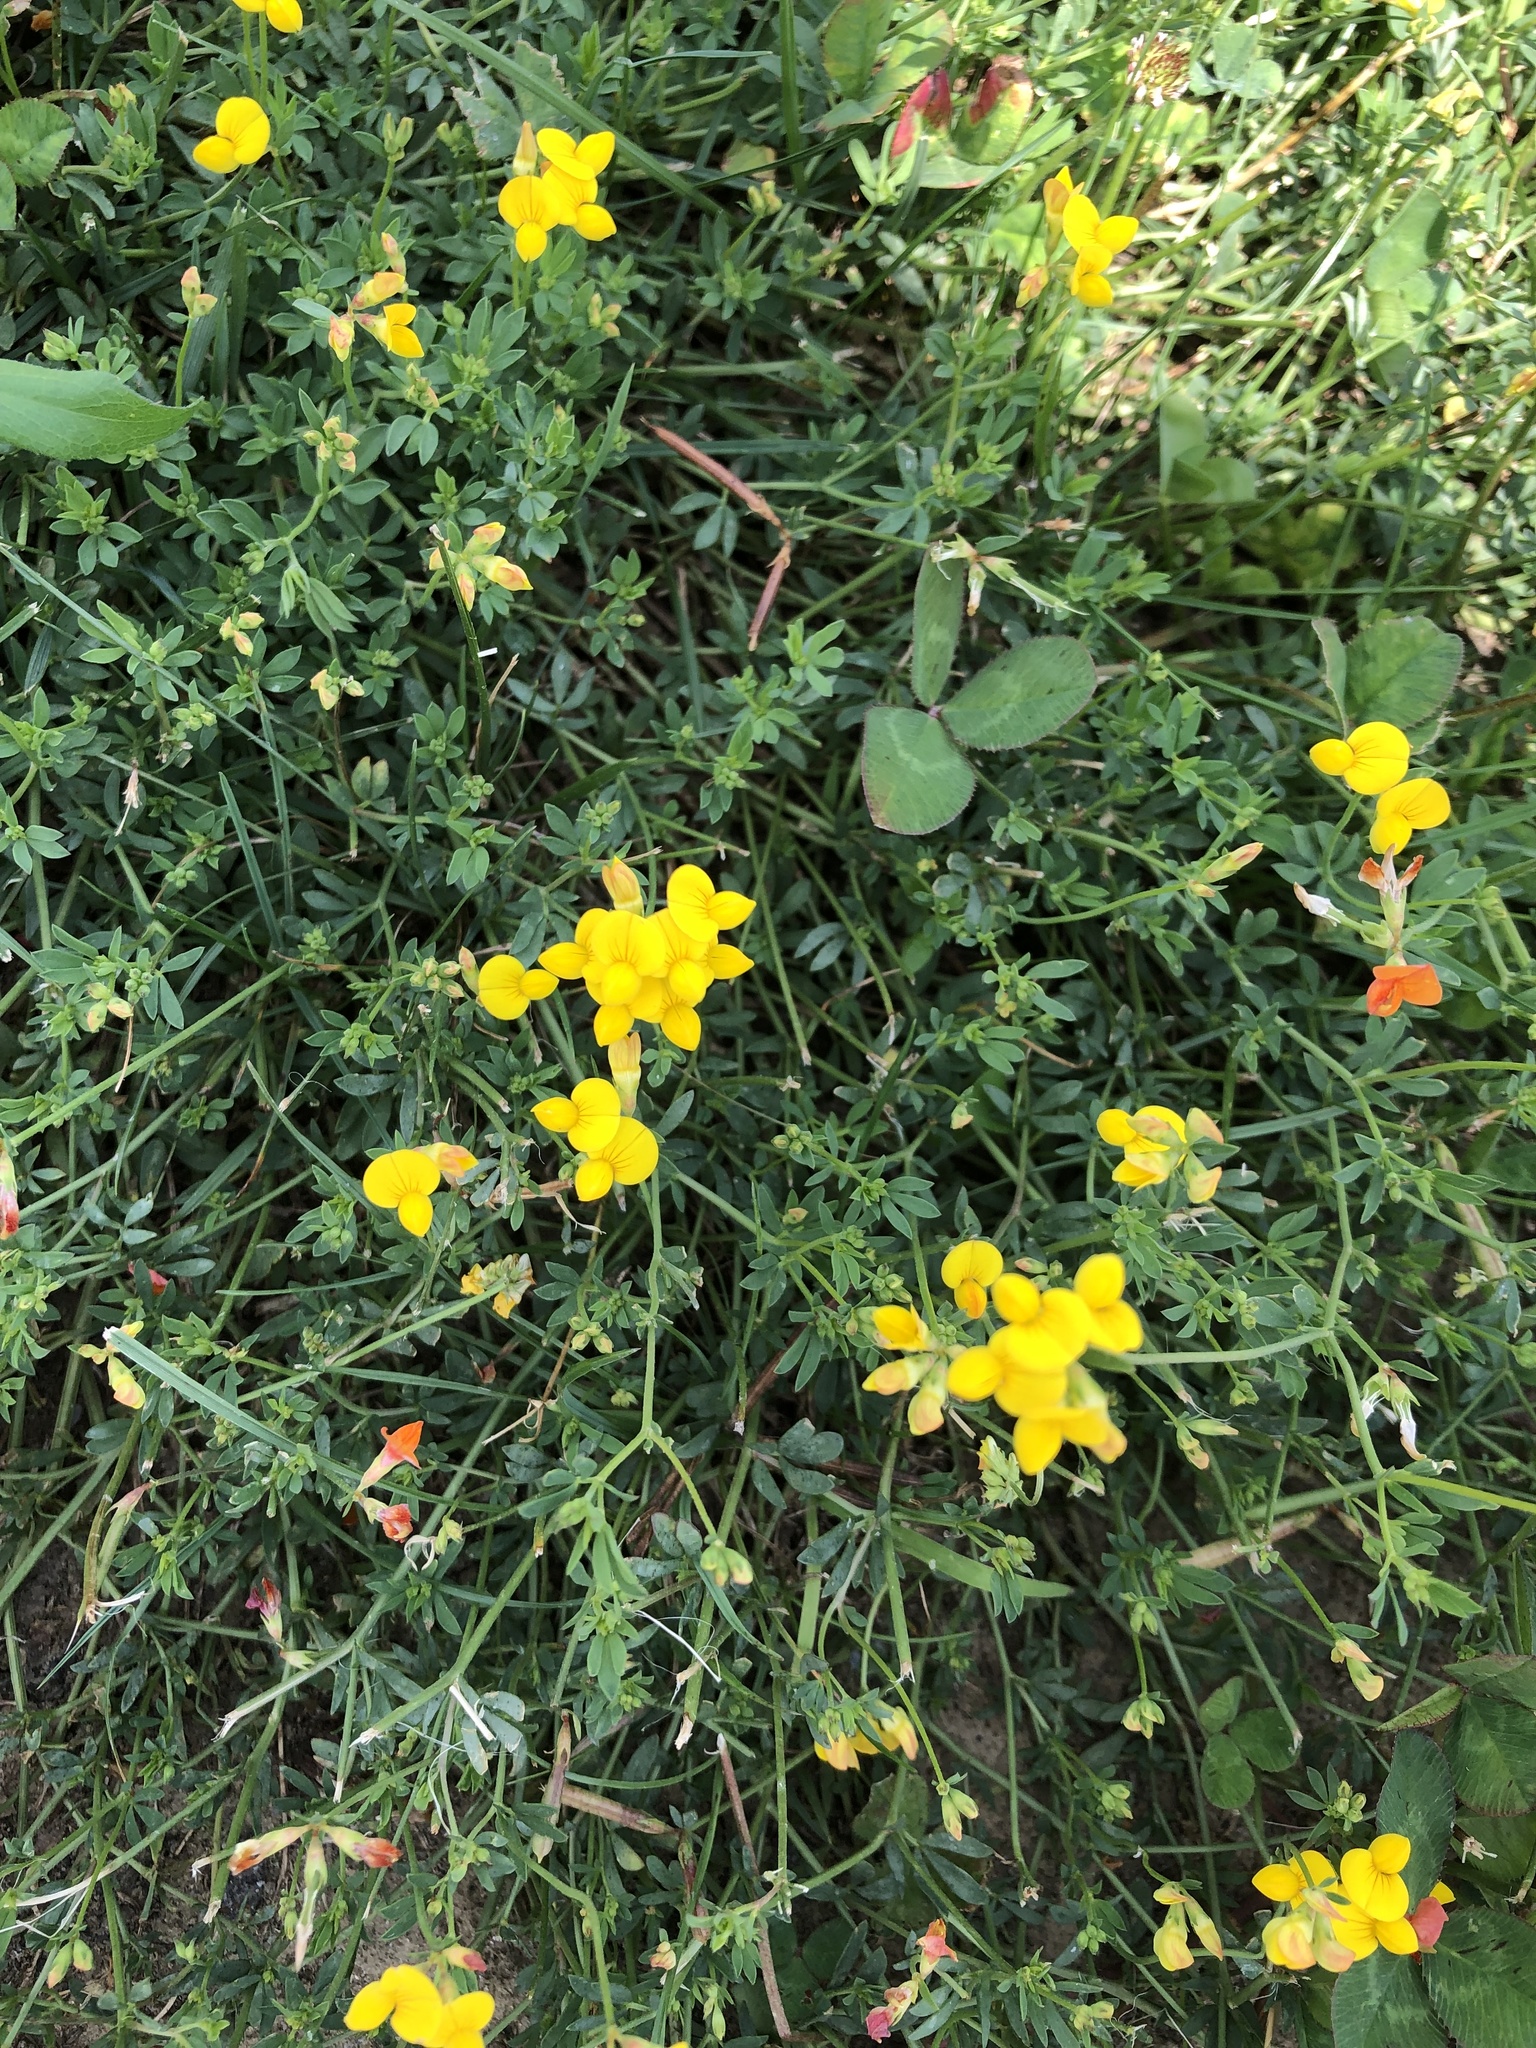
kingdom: Plantae
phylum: Tracheophyta
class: Magnoliopsida
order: Fabales
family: Fabaceae
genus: Lotus
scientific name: Lotus corniculatus
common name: Common bird's-foot-trefoil
